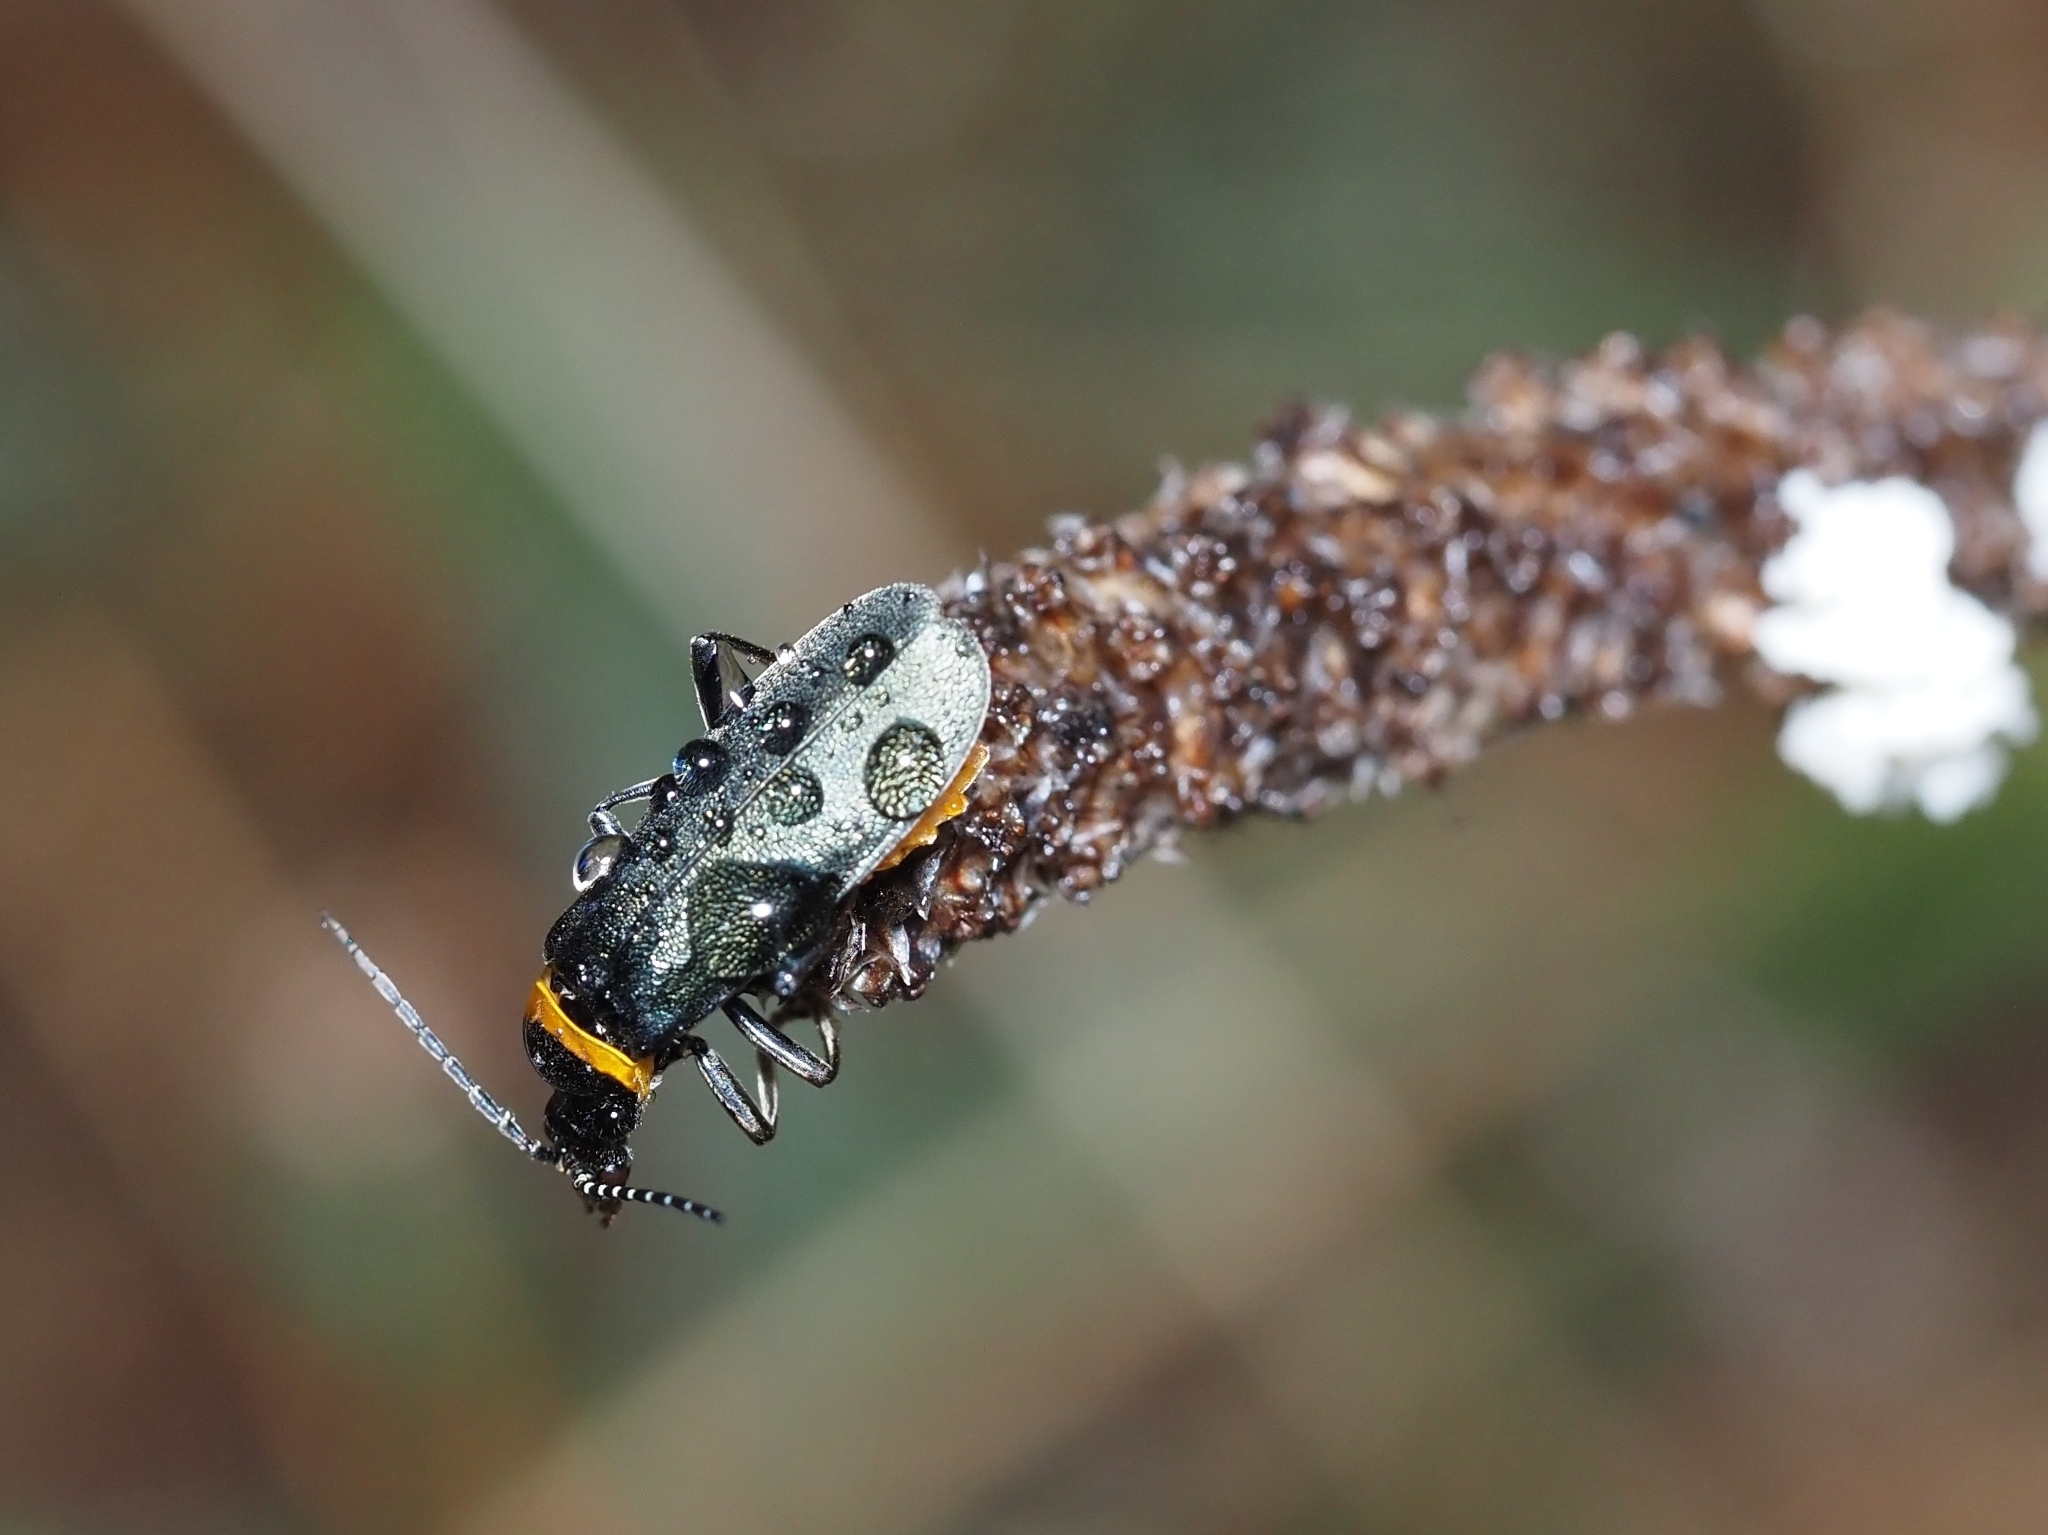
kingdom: Animalia
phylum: Arthropoda
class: Insecta
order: Coleoptera
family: Cantharidae
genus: Chauliognathus
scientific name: Chauliognathus
